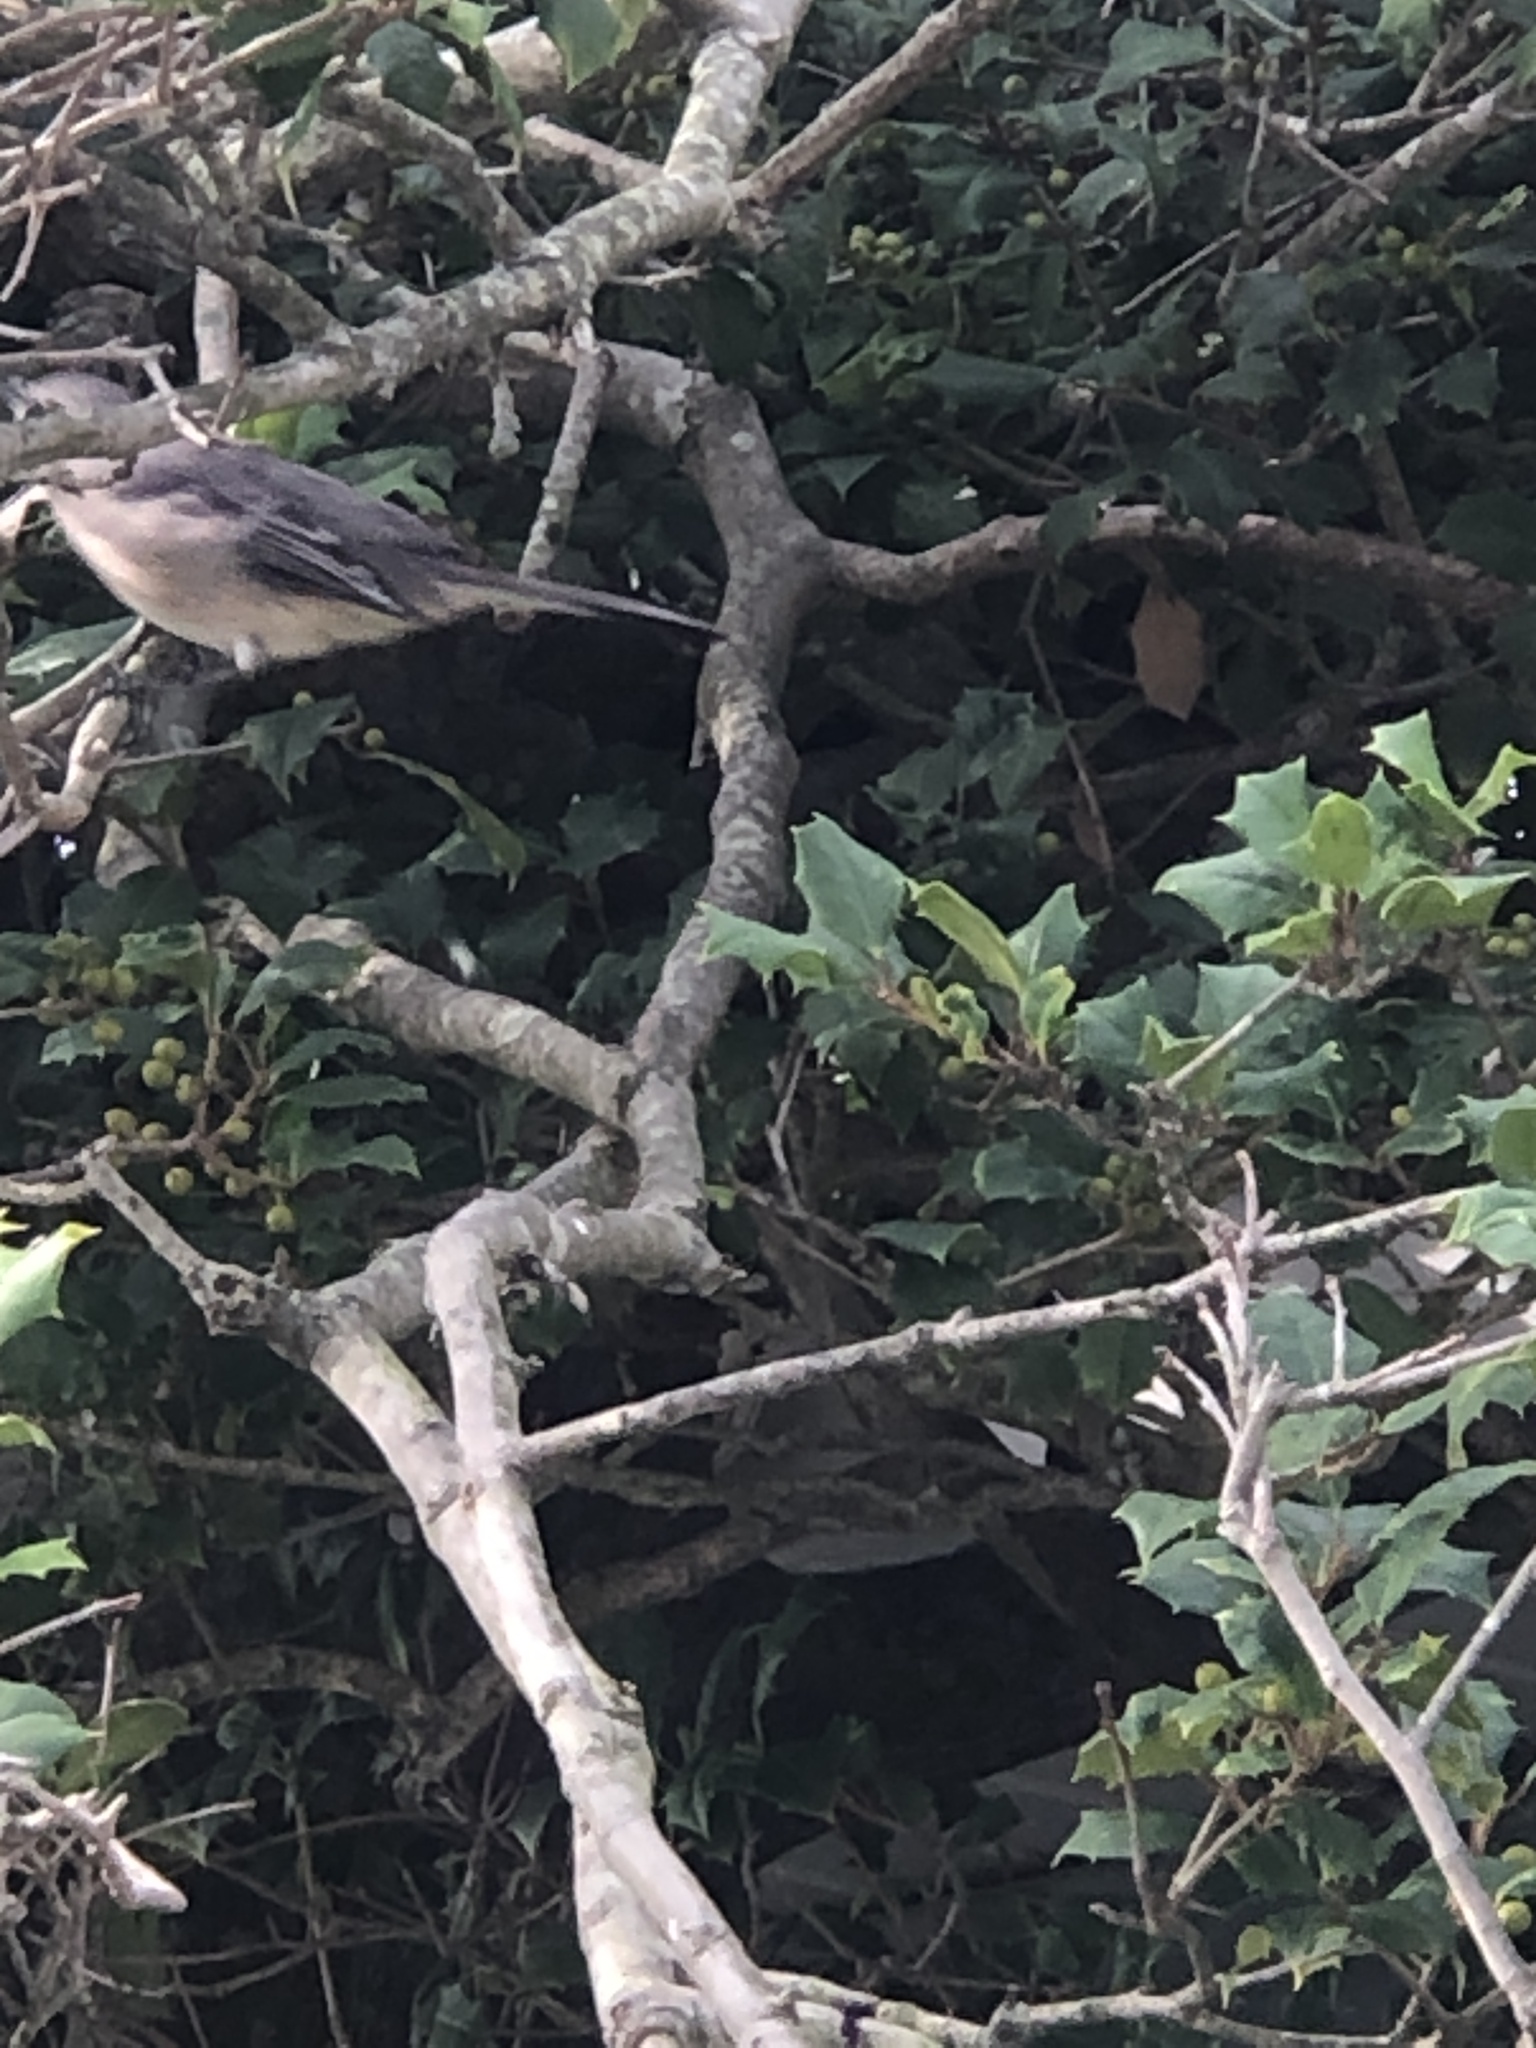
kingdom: Animalia
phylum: Chordata
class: Aves
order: Passeriformes
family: Mimidae
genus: Mimus
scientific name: Mimus polyglottos
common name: Northern mockingbird
